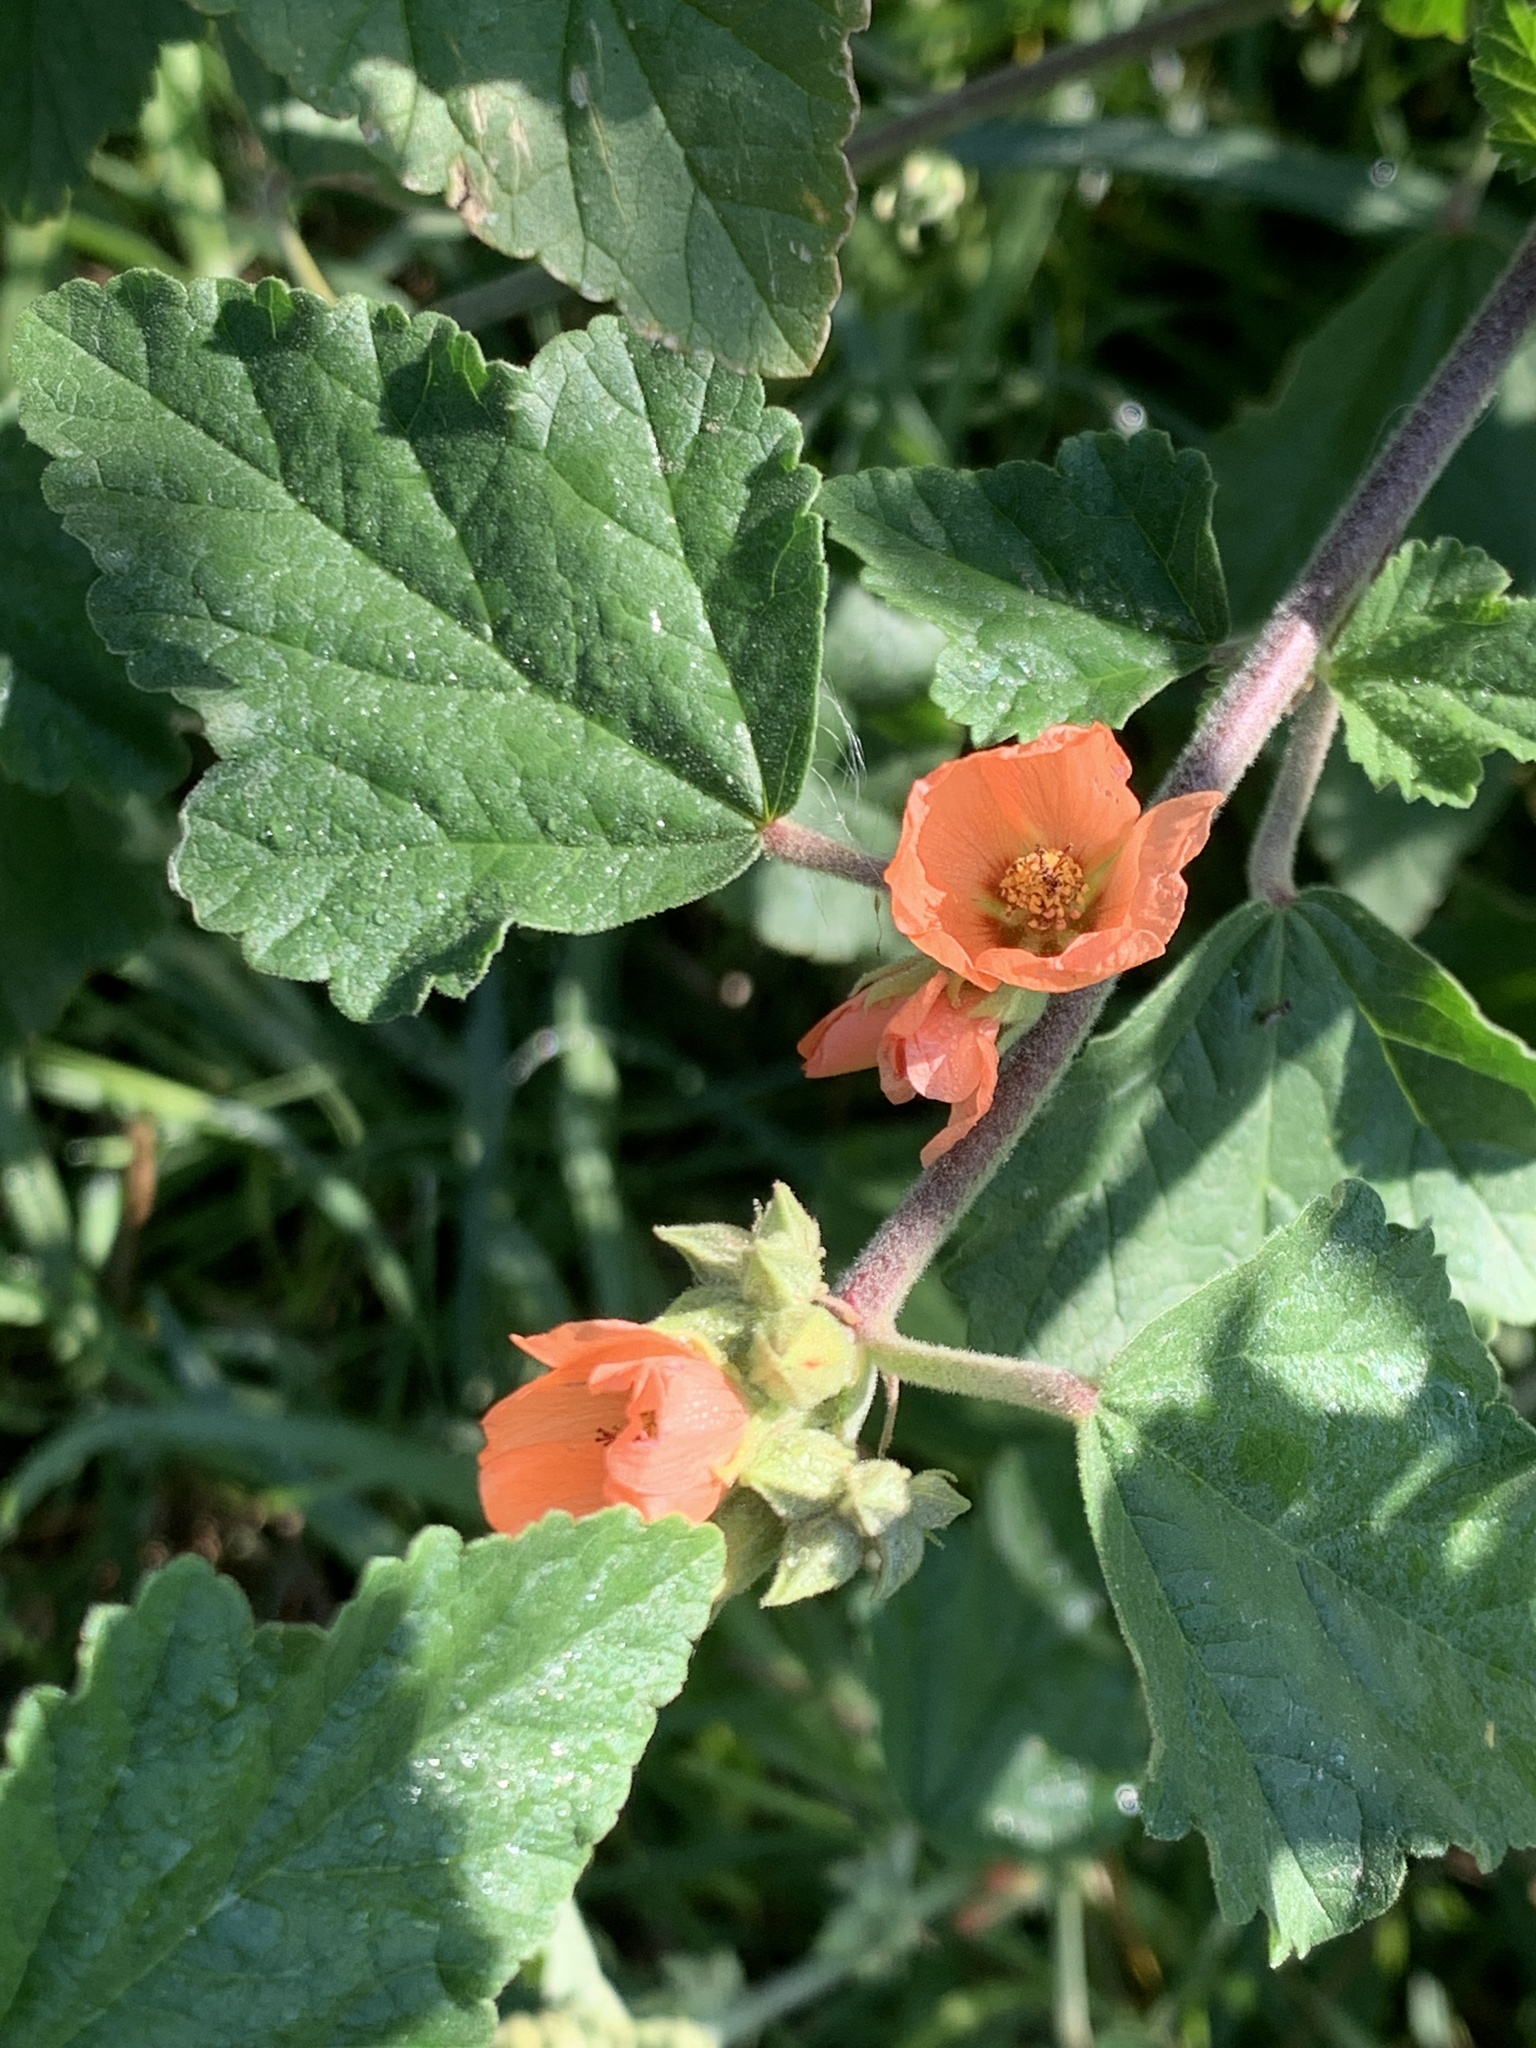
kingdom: Plantae
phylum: Tracheophyta
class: Magnoliopsida
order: Malvales
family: Malvaceae
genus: Sphaeralcea
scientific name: Sphaeralcea bonariensis
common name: Latin globemallow
